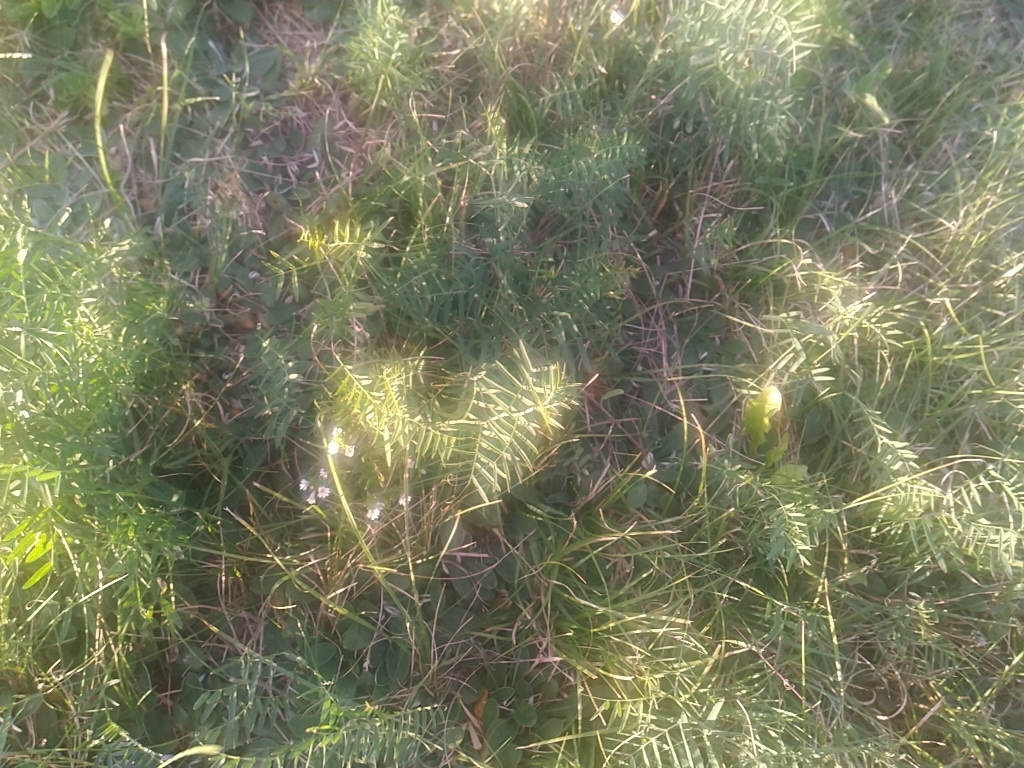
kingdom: Plantae
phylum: Tracheophyta
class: Magnoliopsida
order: Fabales
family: Fabaceae
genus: Vicia
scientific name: Vicia cracca
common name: Bird vetch
